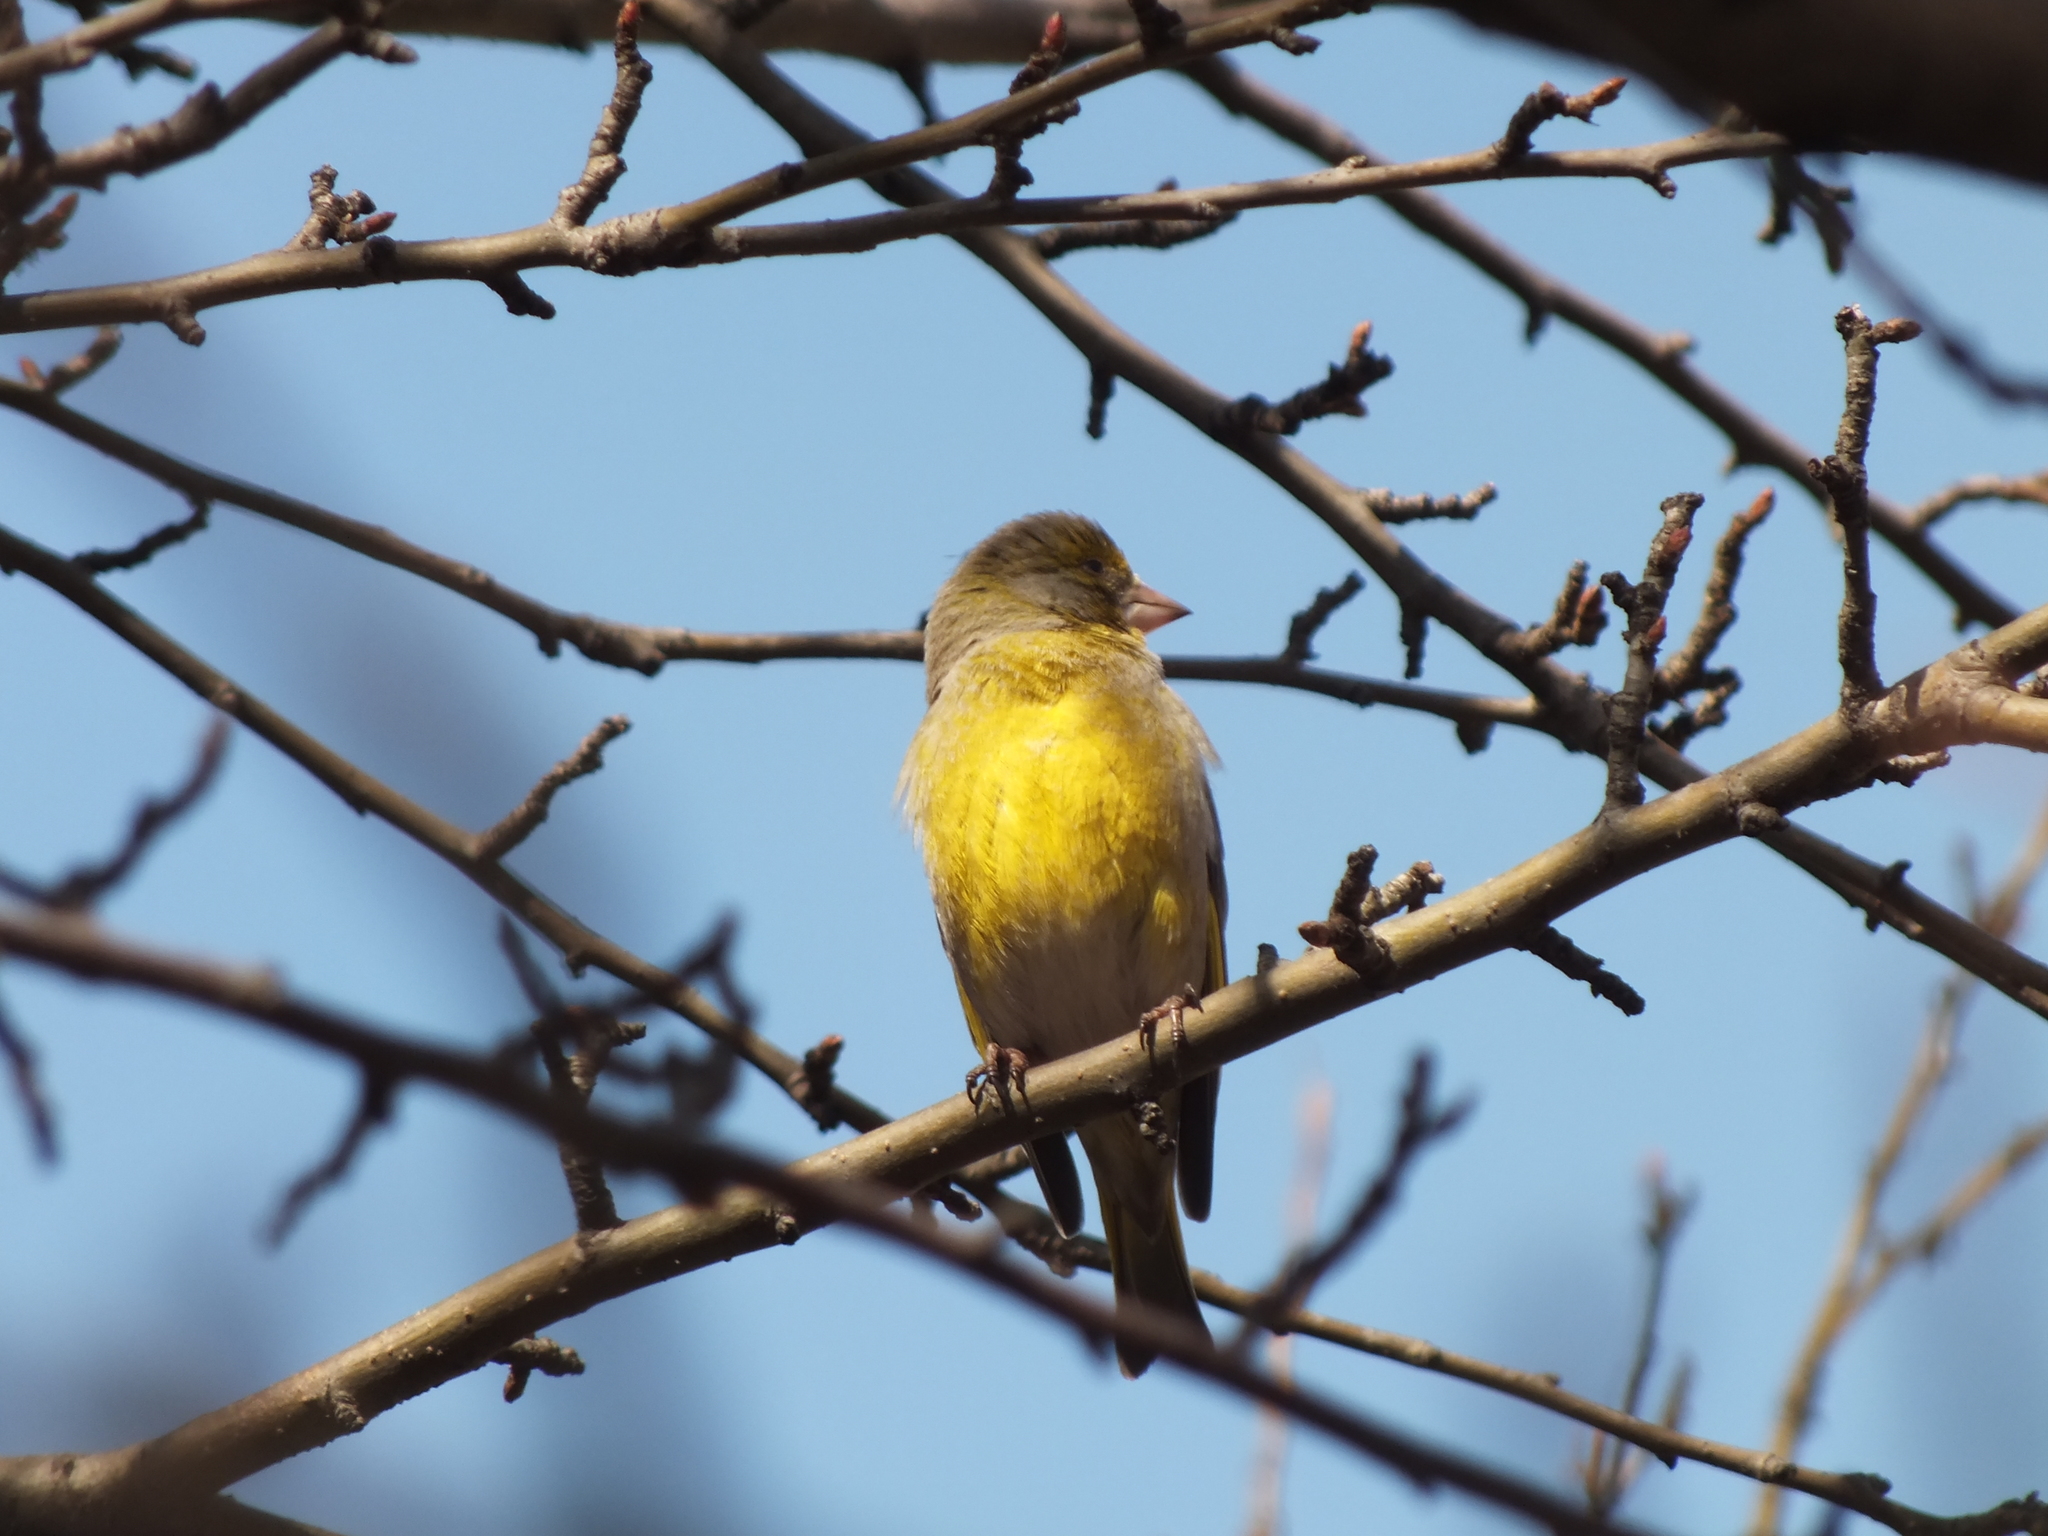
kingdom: Plantae
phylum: Tracheophyta
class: Liliopsida
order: Poales
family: Poaceae
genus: Chloris
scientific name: Chloris chloris
